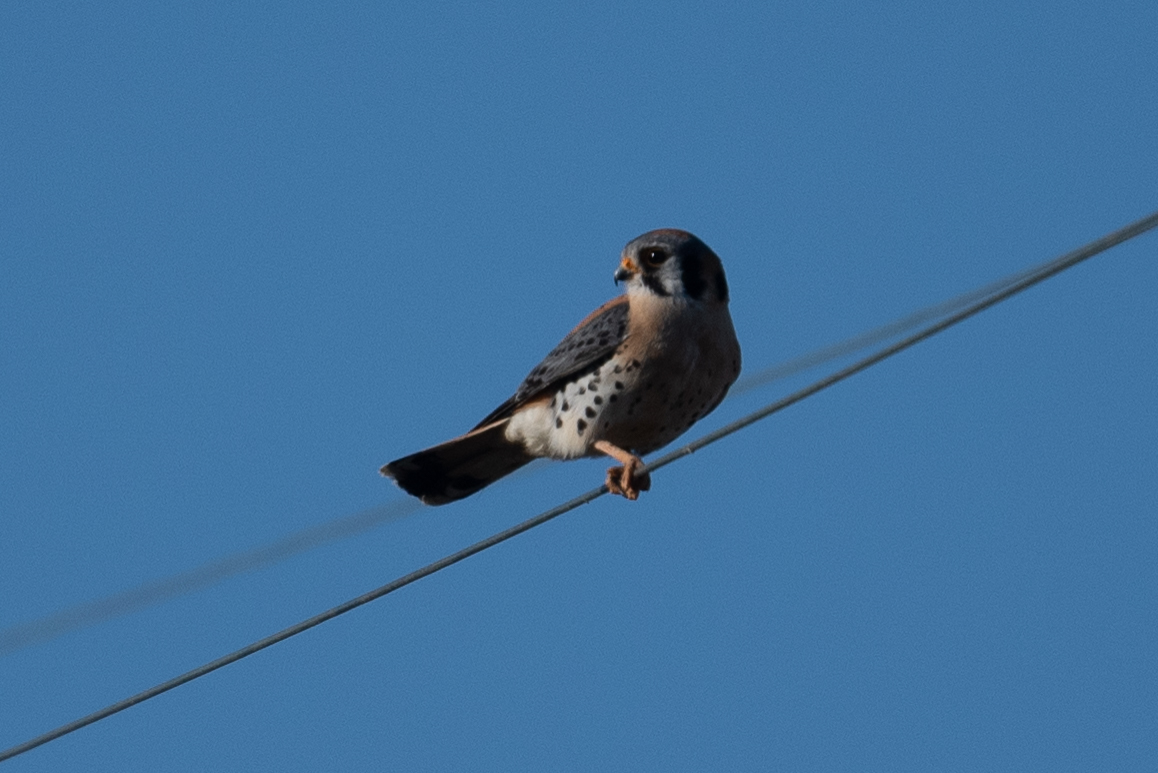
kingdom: Animalia
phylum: Chordata
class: Aves
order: Falconiformes
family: Falconidae
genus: Falco
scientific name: Falco sparverius
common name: American kestrel
